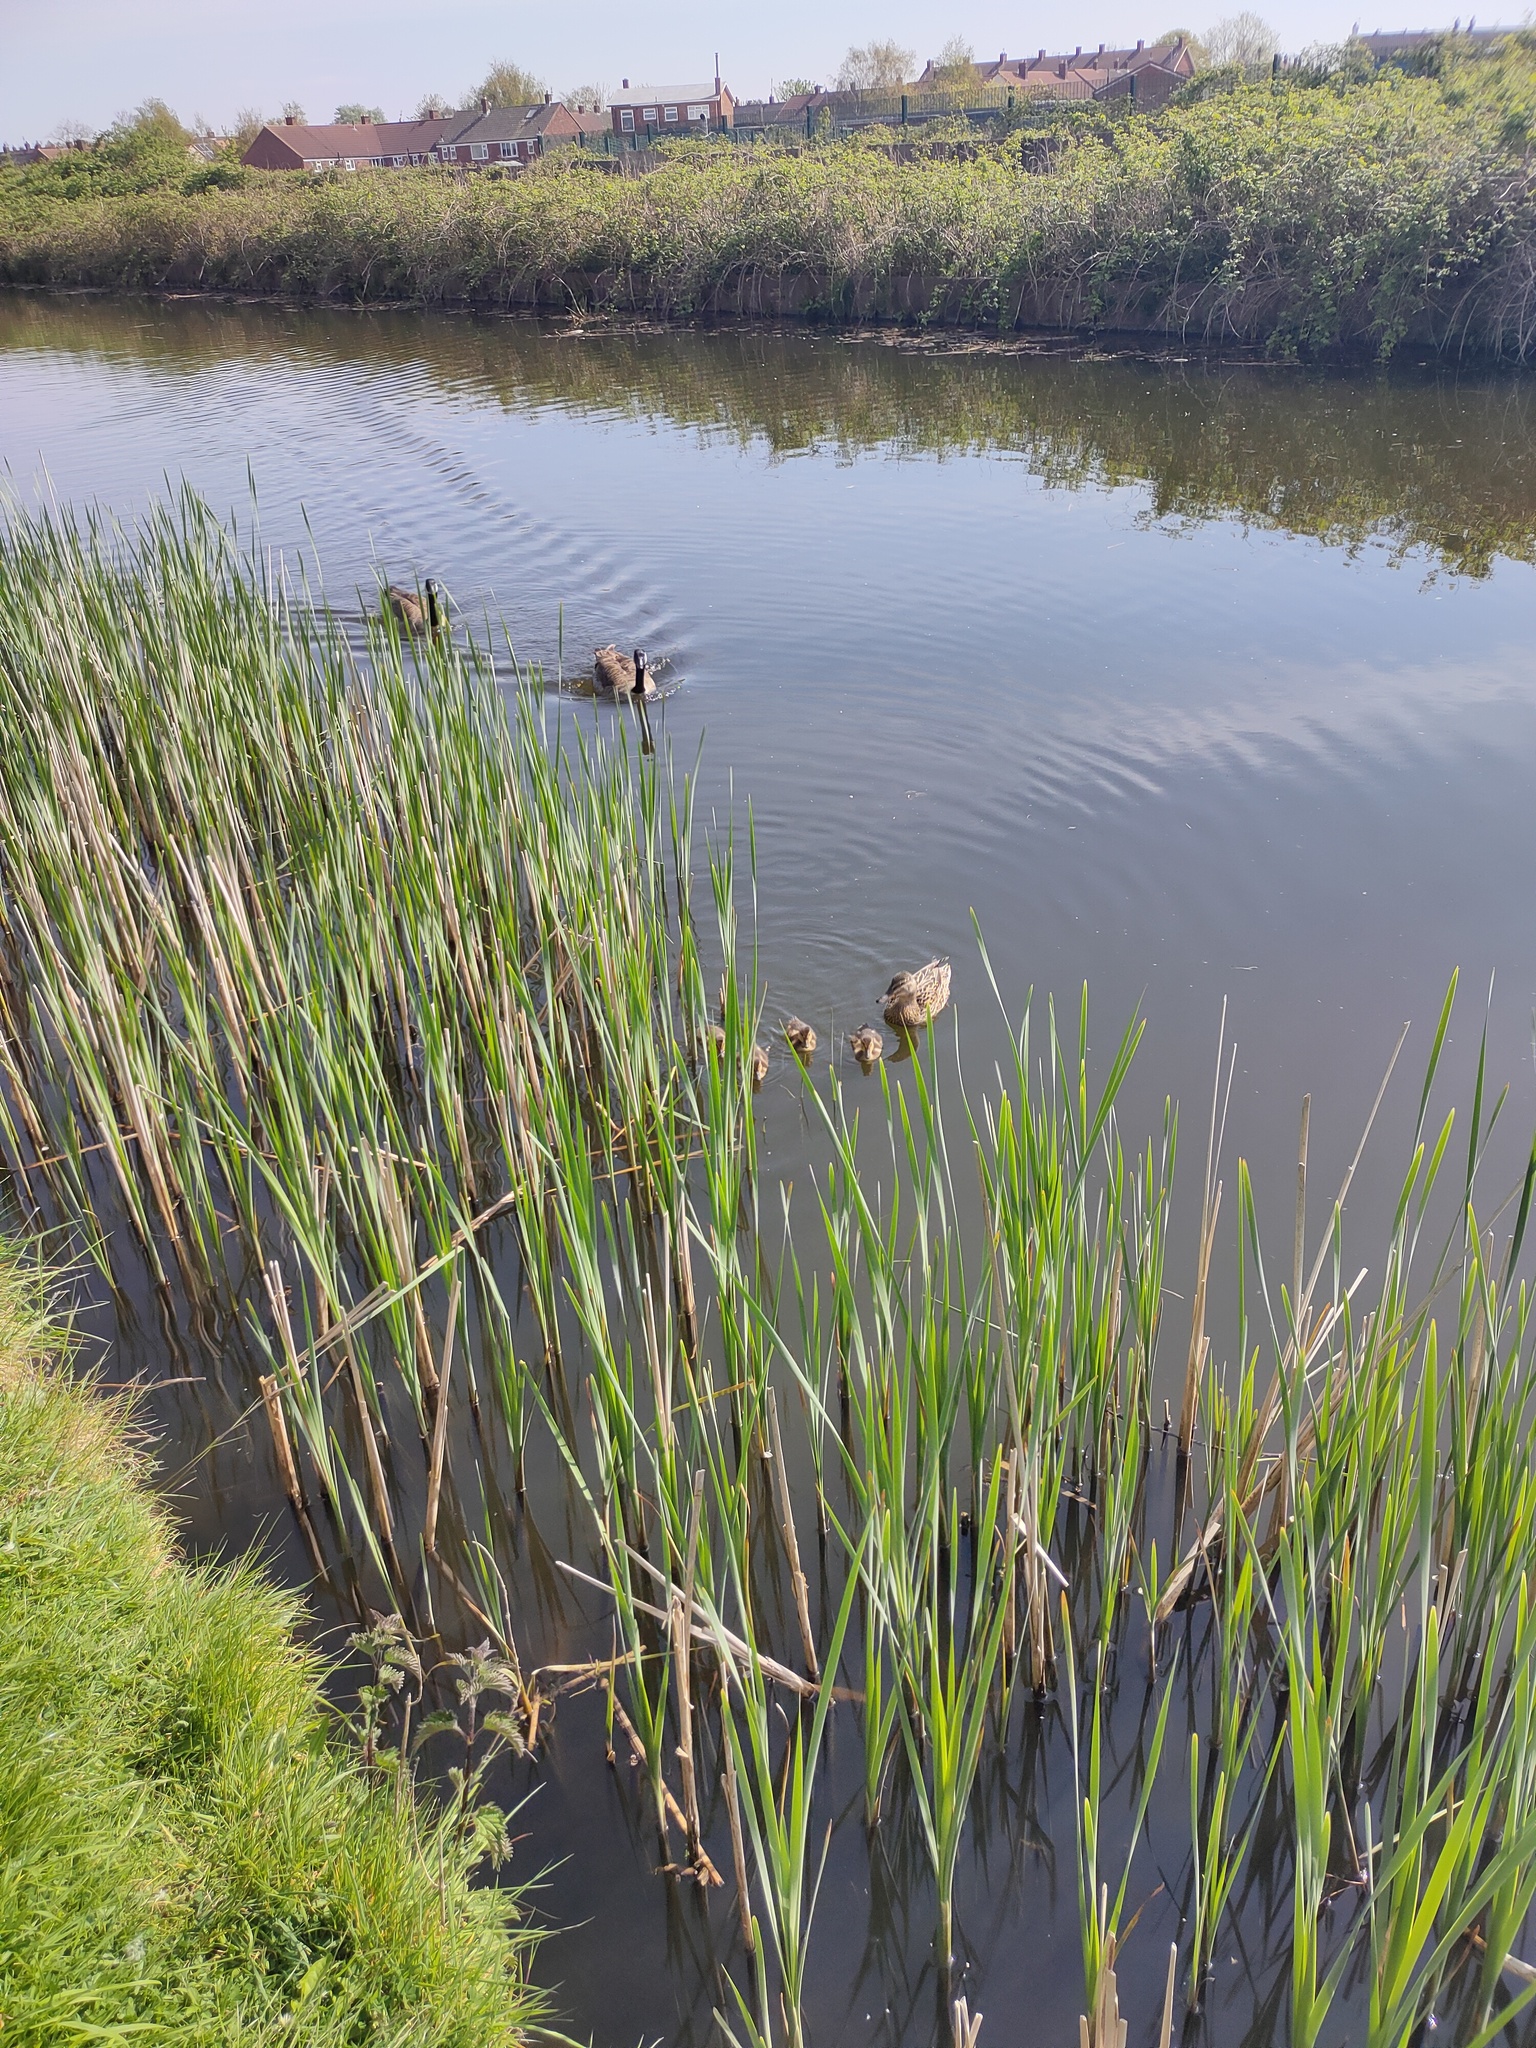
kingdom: Animalia
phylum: Chordata
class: Aves
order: Anseriformes
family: Anatidae
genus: Anas
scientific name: Anas platyrhynchos
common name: Mallard
